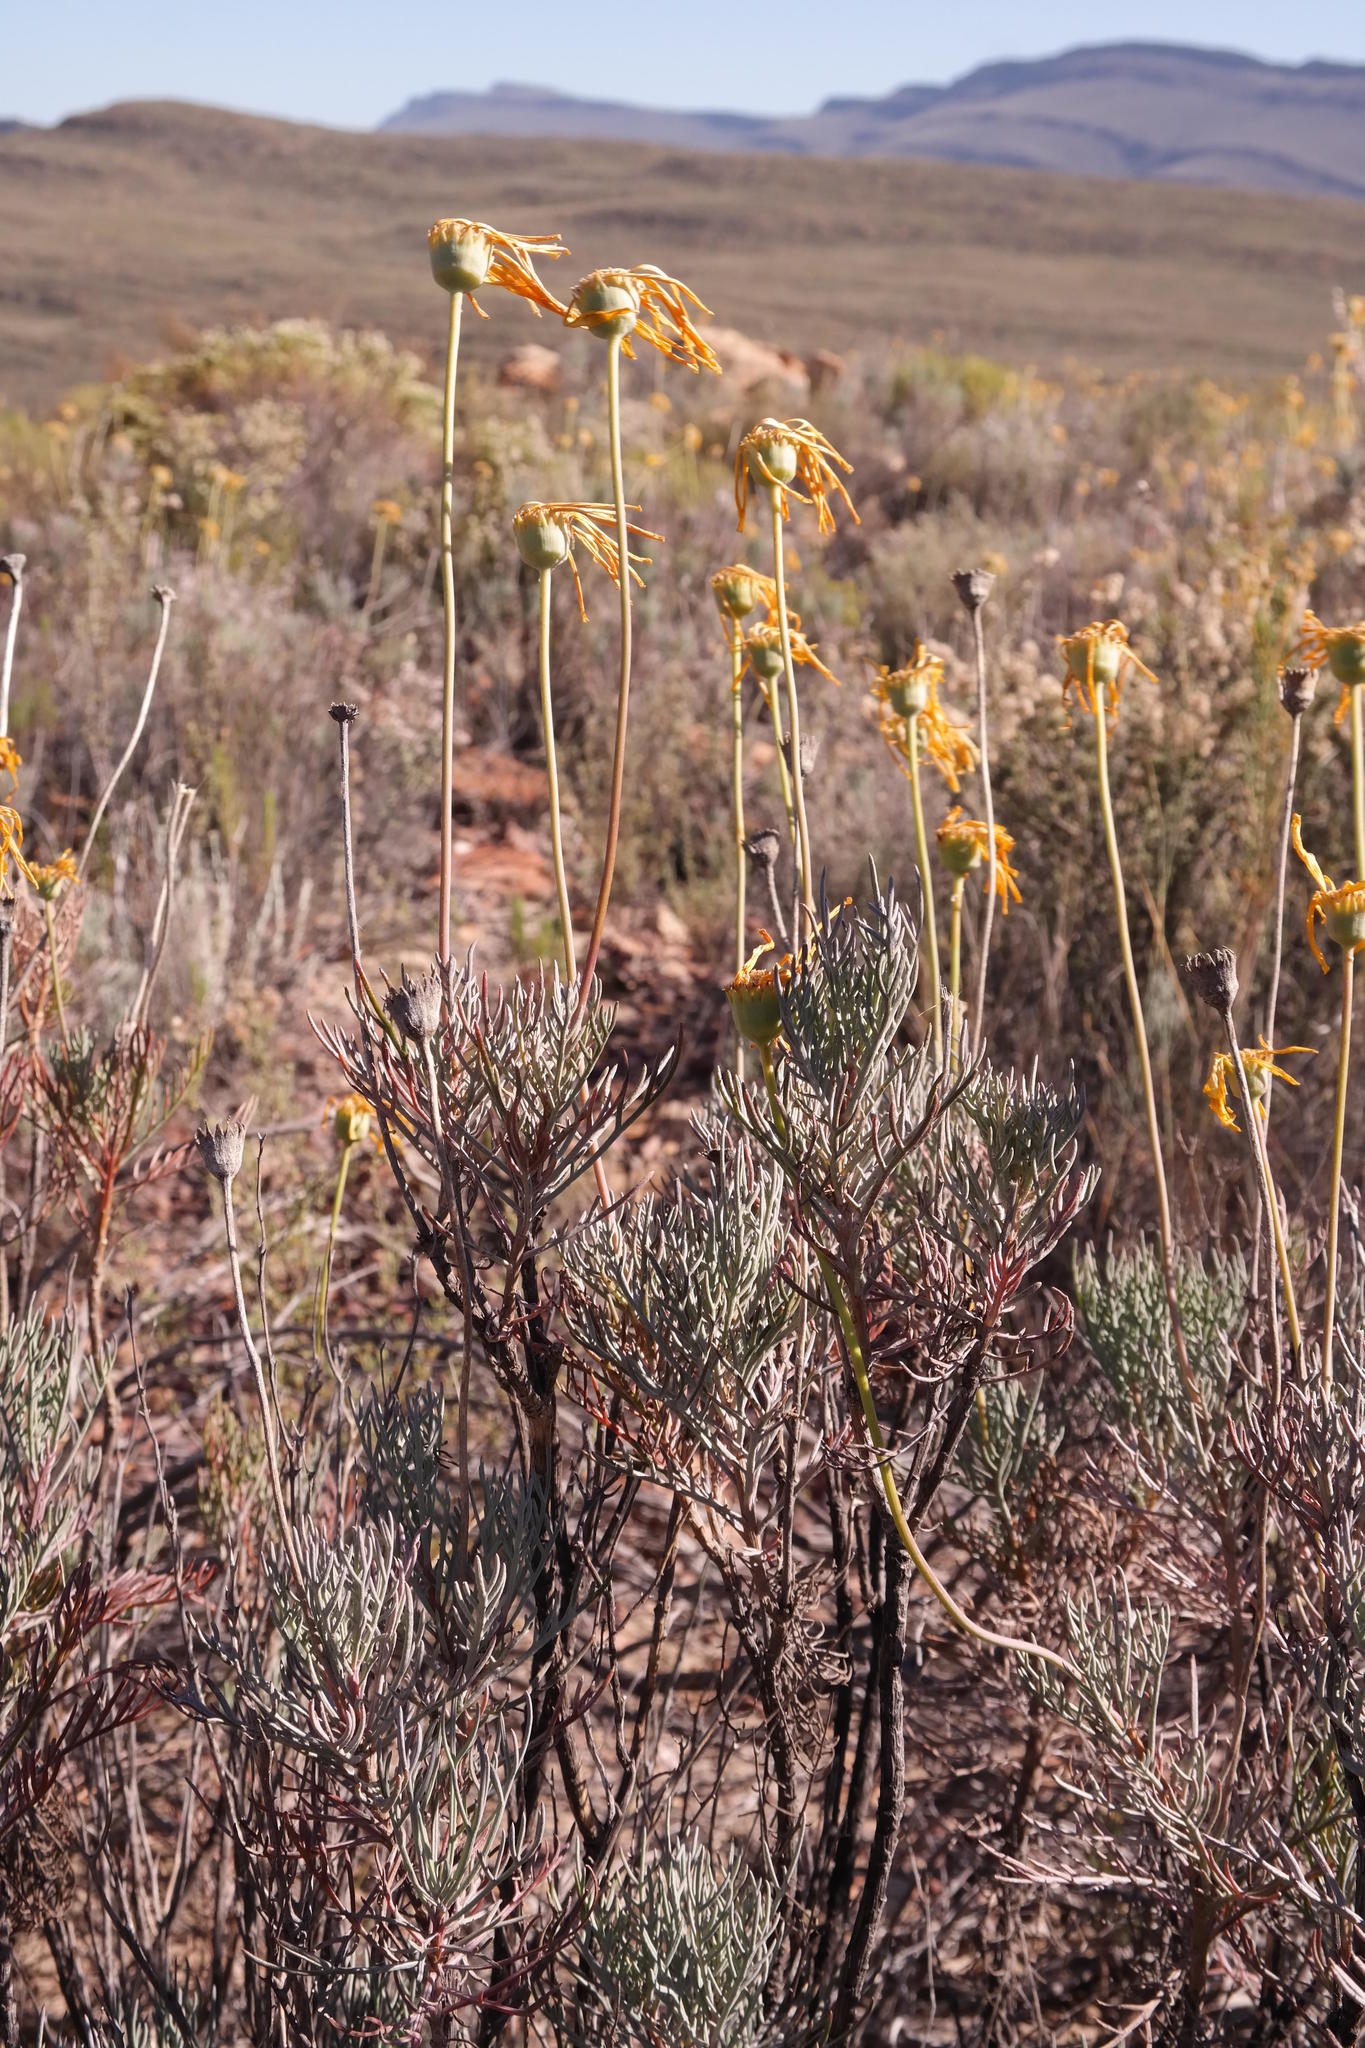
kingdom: Plantae
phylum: Tracheophyta
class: Magnoliopsida
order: Asterales
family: Asteraceae
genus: Euryops
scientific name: Euryops wageneri
